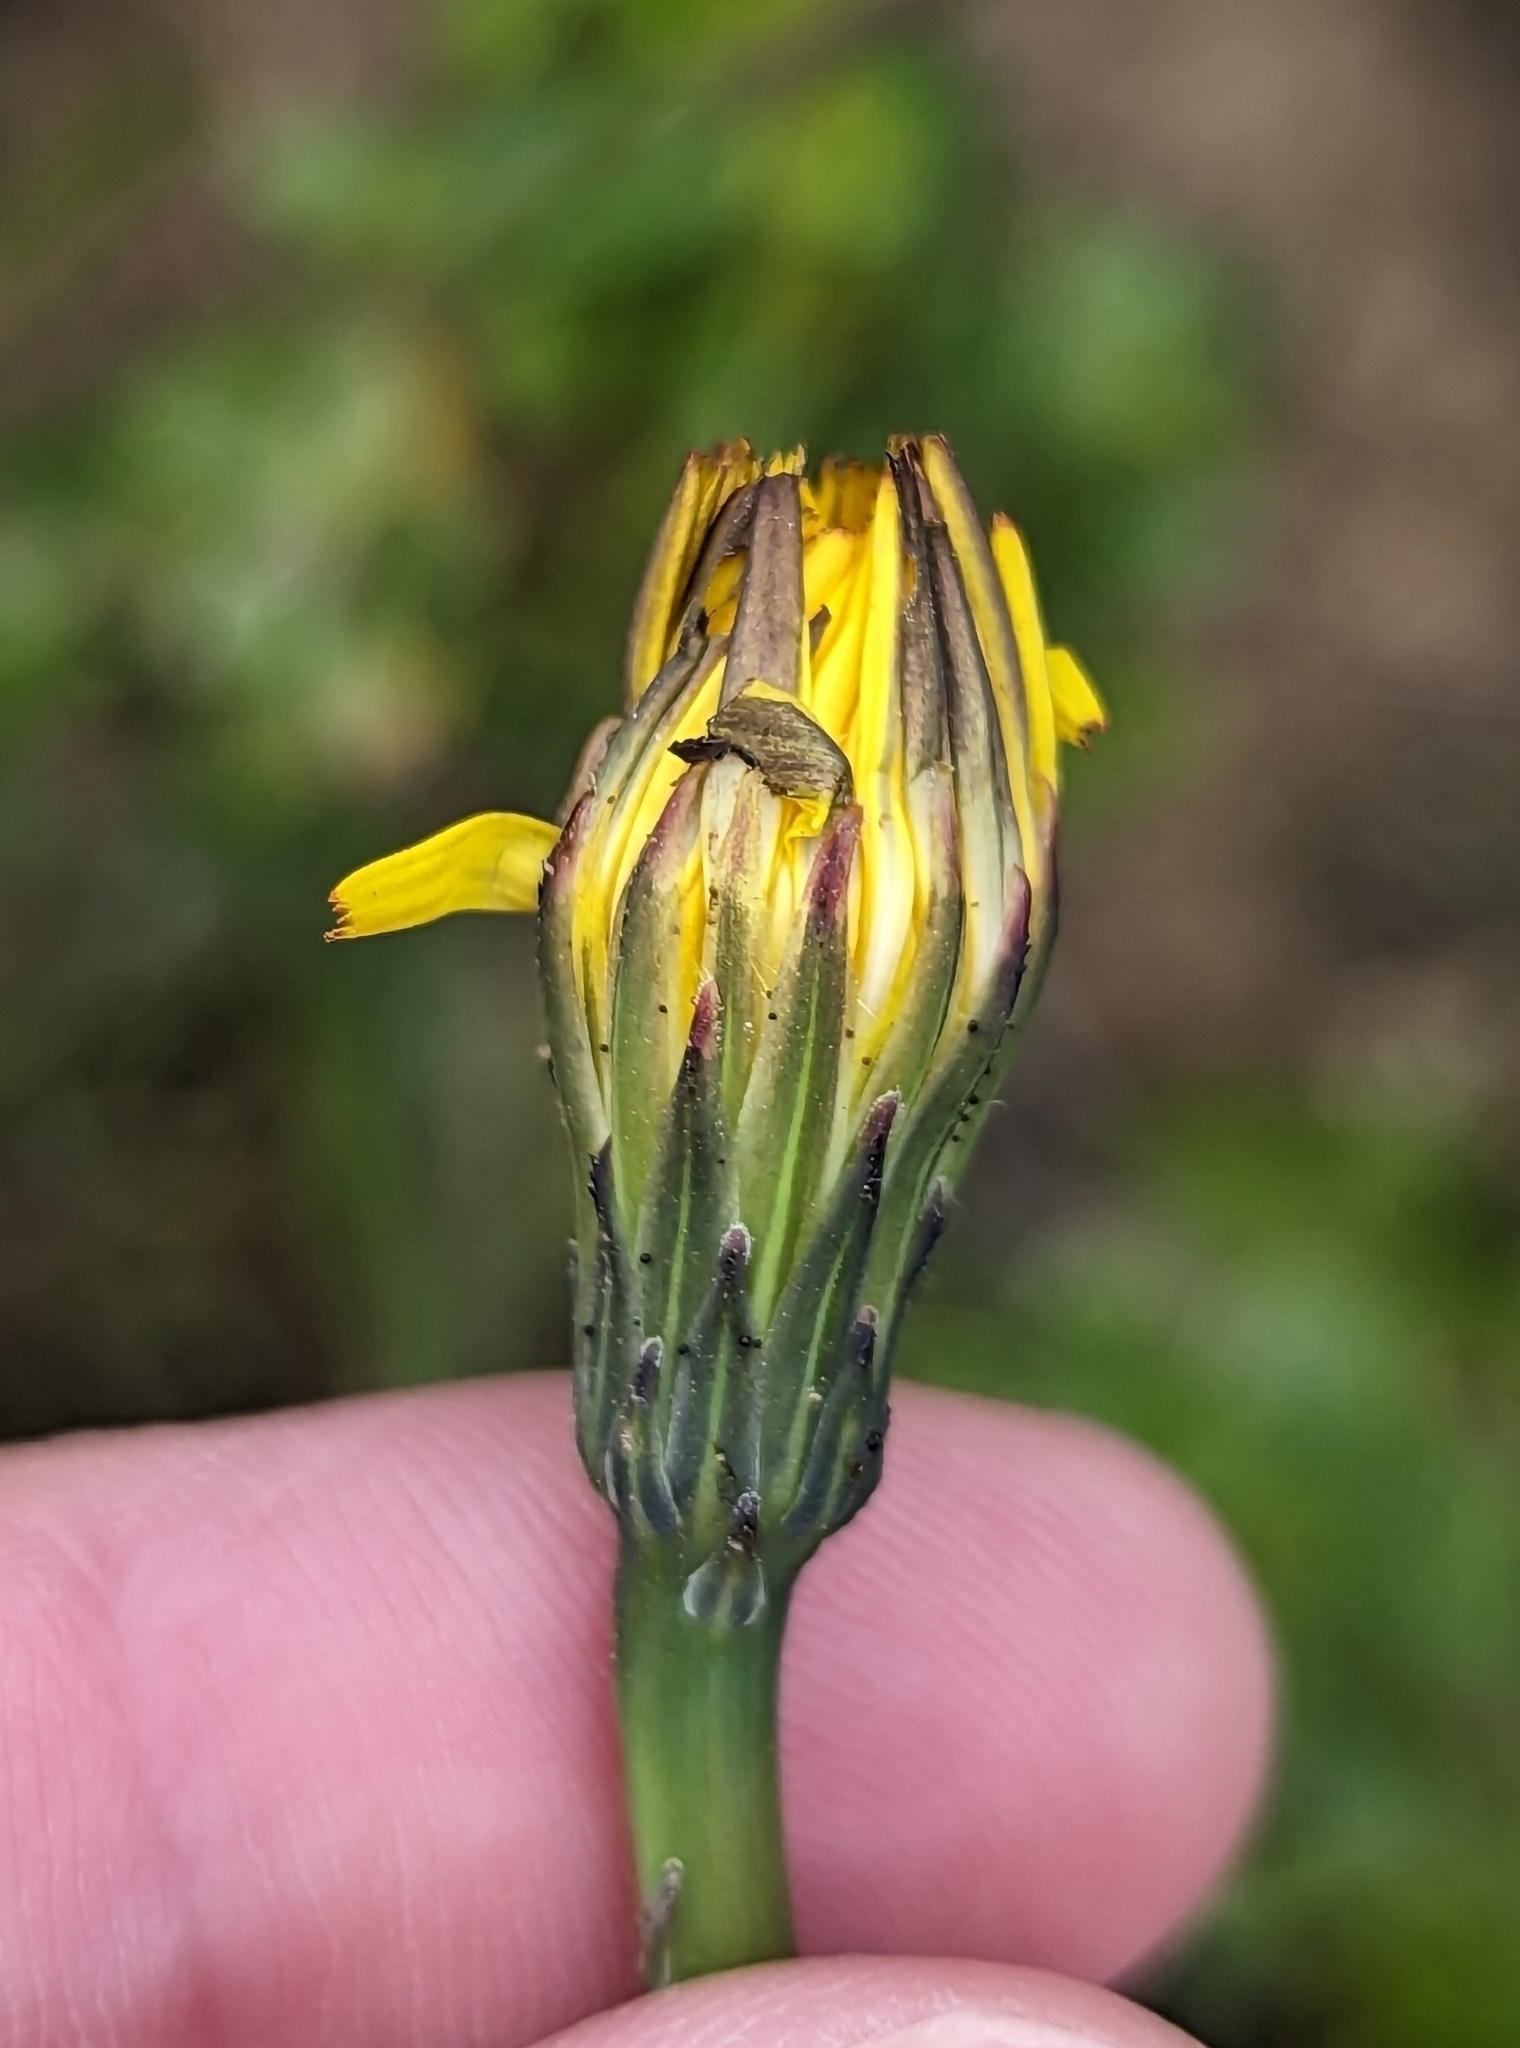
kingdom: Plantae
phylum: Tracheophyta
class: Magnoliopsida
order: Asterales
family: Asteraceae
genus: Hypochaeris
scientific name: Hypochaeris radicata
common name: Flatweed
